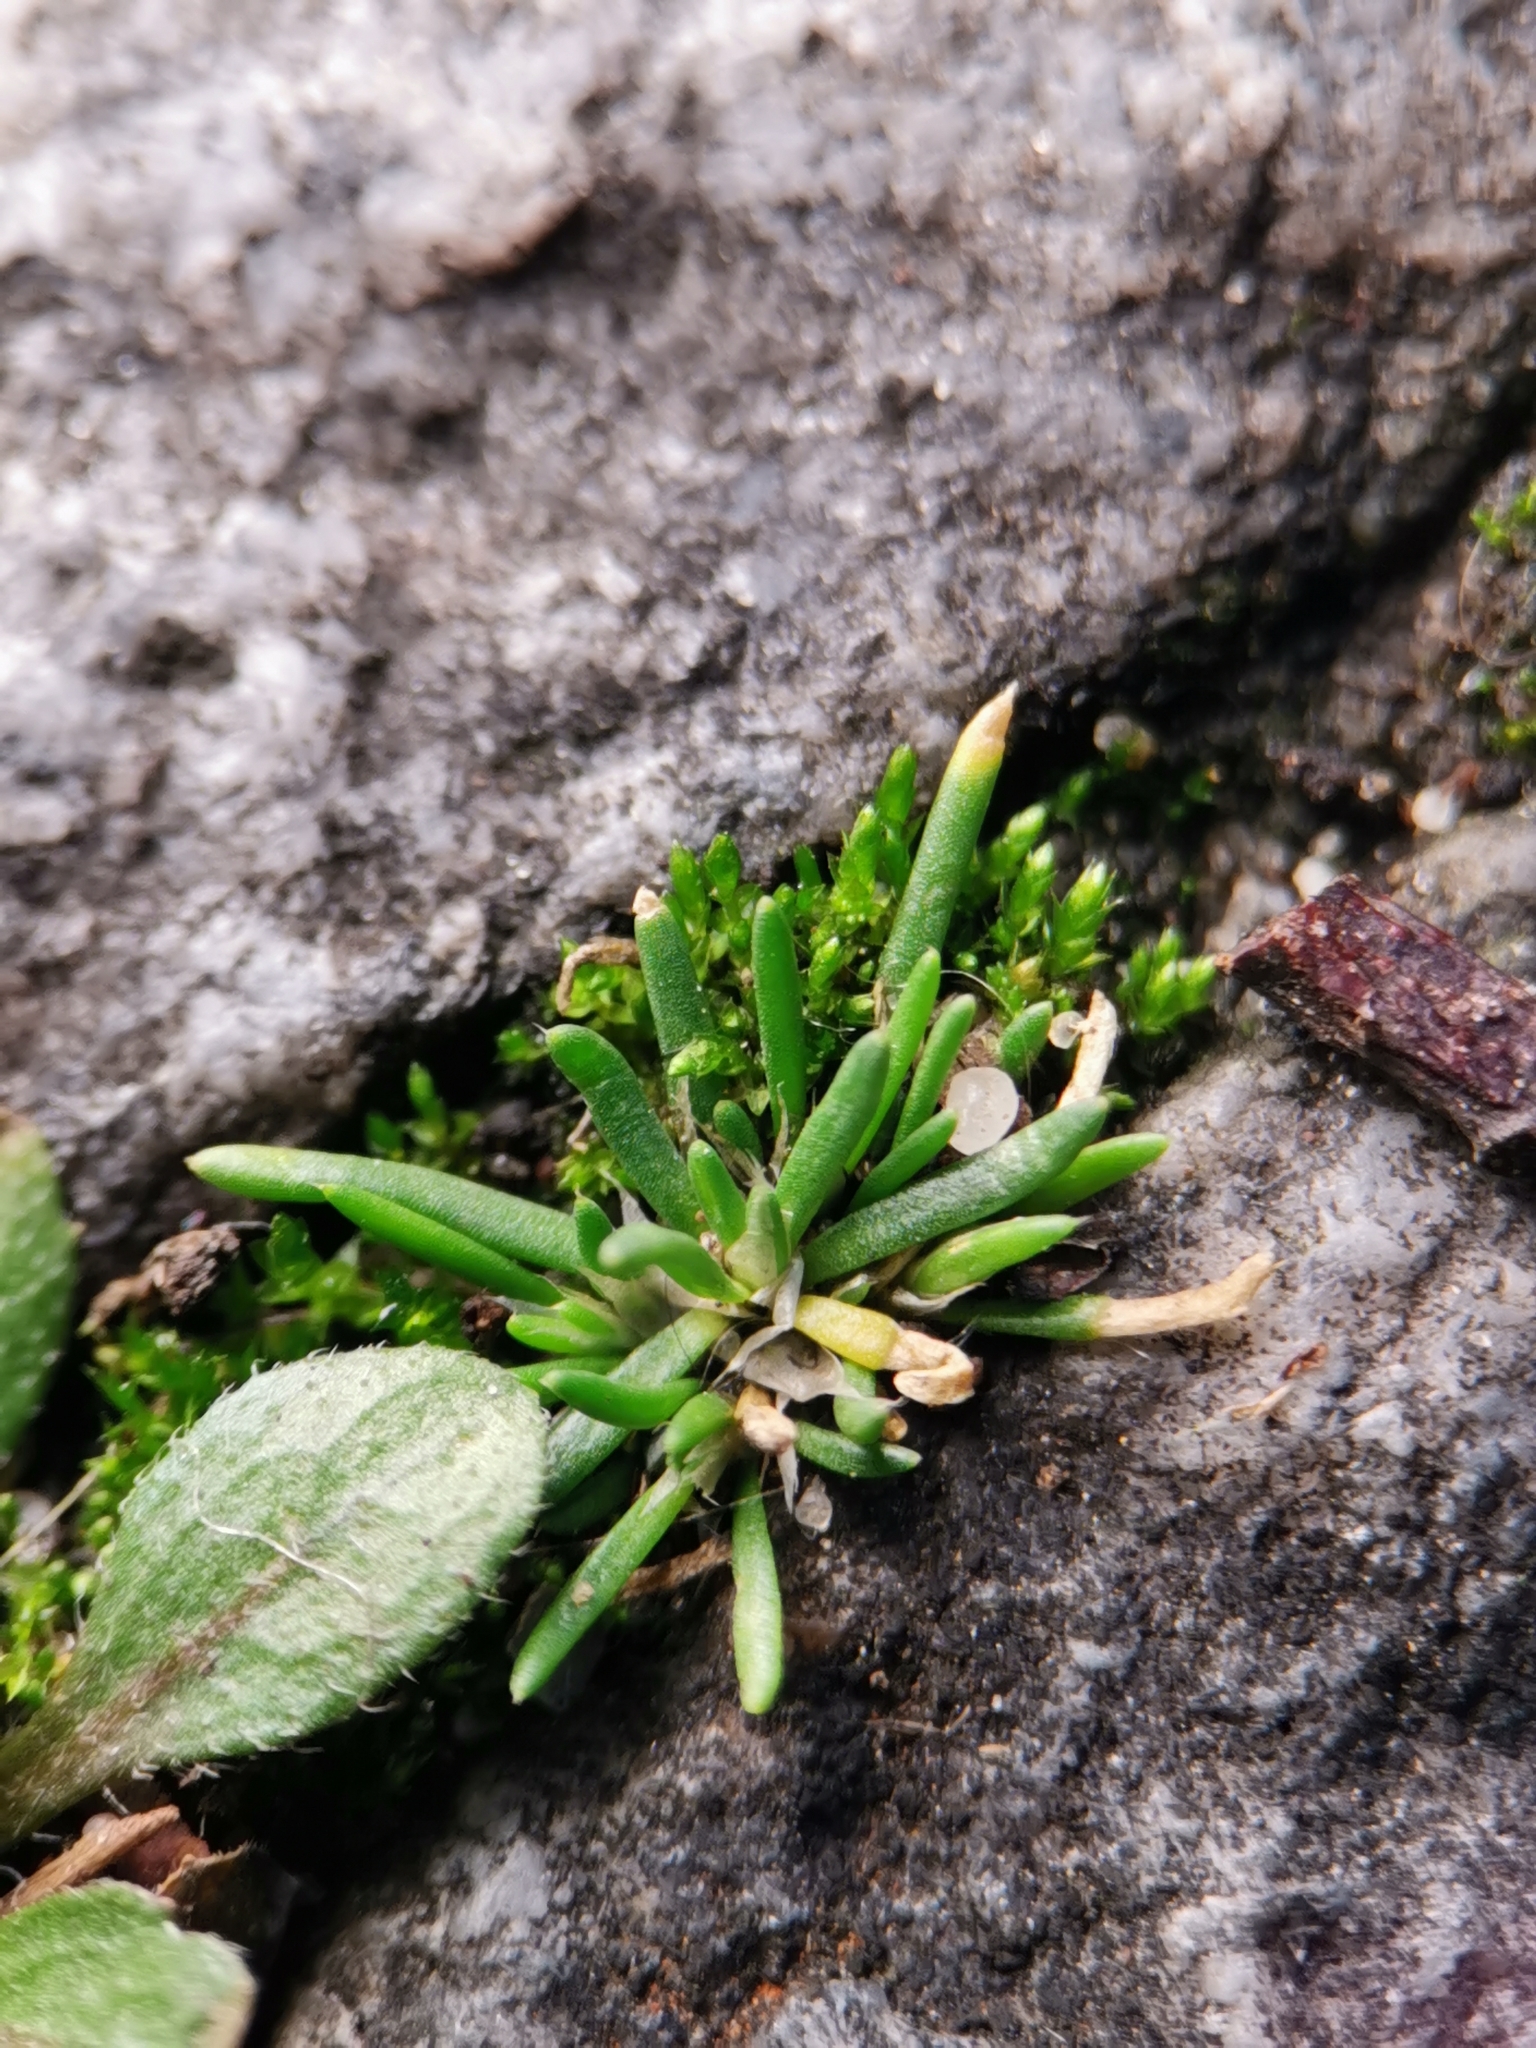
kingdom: Plantae
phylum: Tracheophyta
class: Magnoliopsida
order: Caryophyllales
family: Caryophyllaceae
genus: Sagina
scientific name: Sagina procumbens
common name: Procumbent pearlwort
